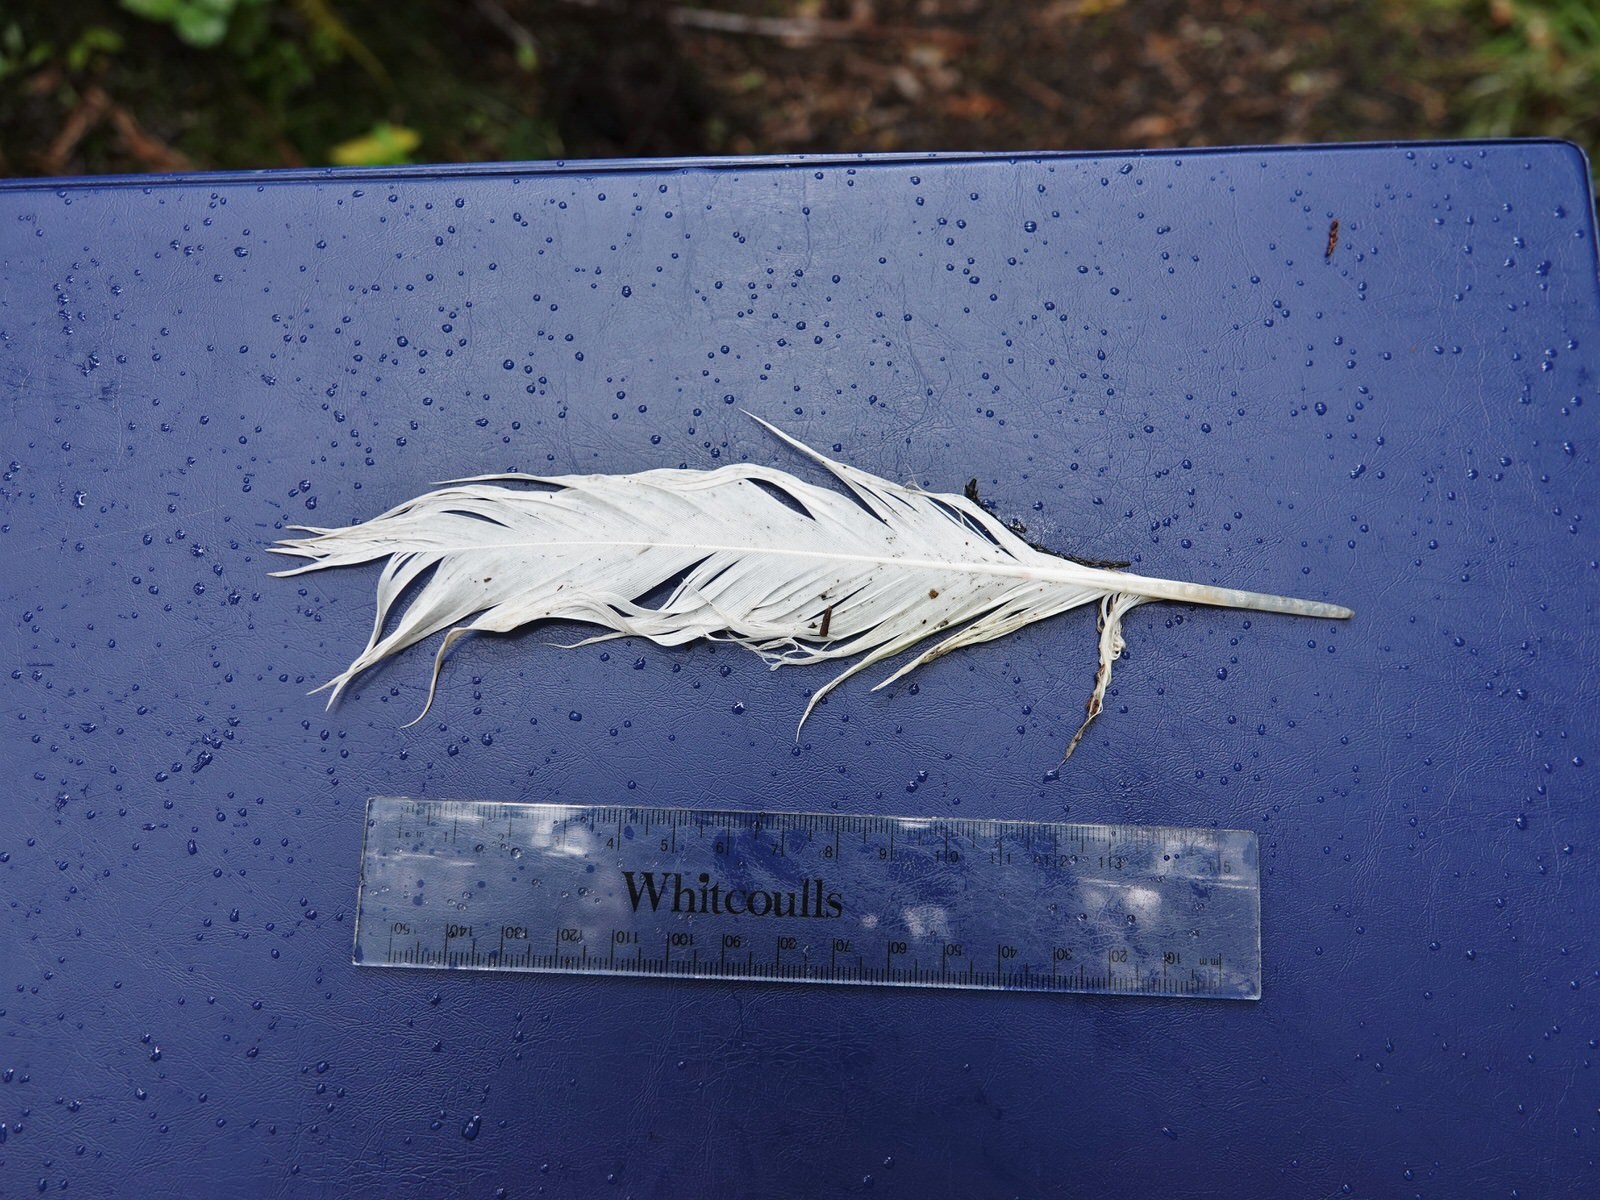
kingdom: Animalia
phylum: Chordata
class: Aves
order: Psittaciformes
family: Psittacidae
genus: Cacatua
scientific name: Cacatua galerita
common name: Sulphur-crested cockatoo
